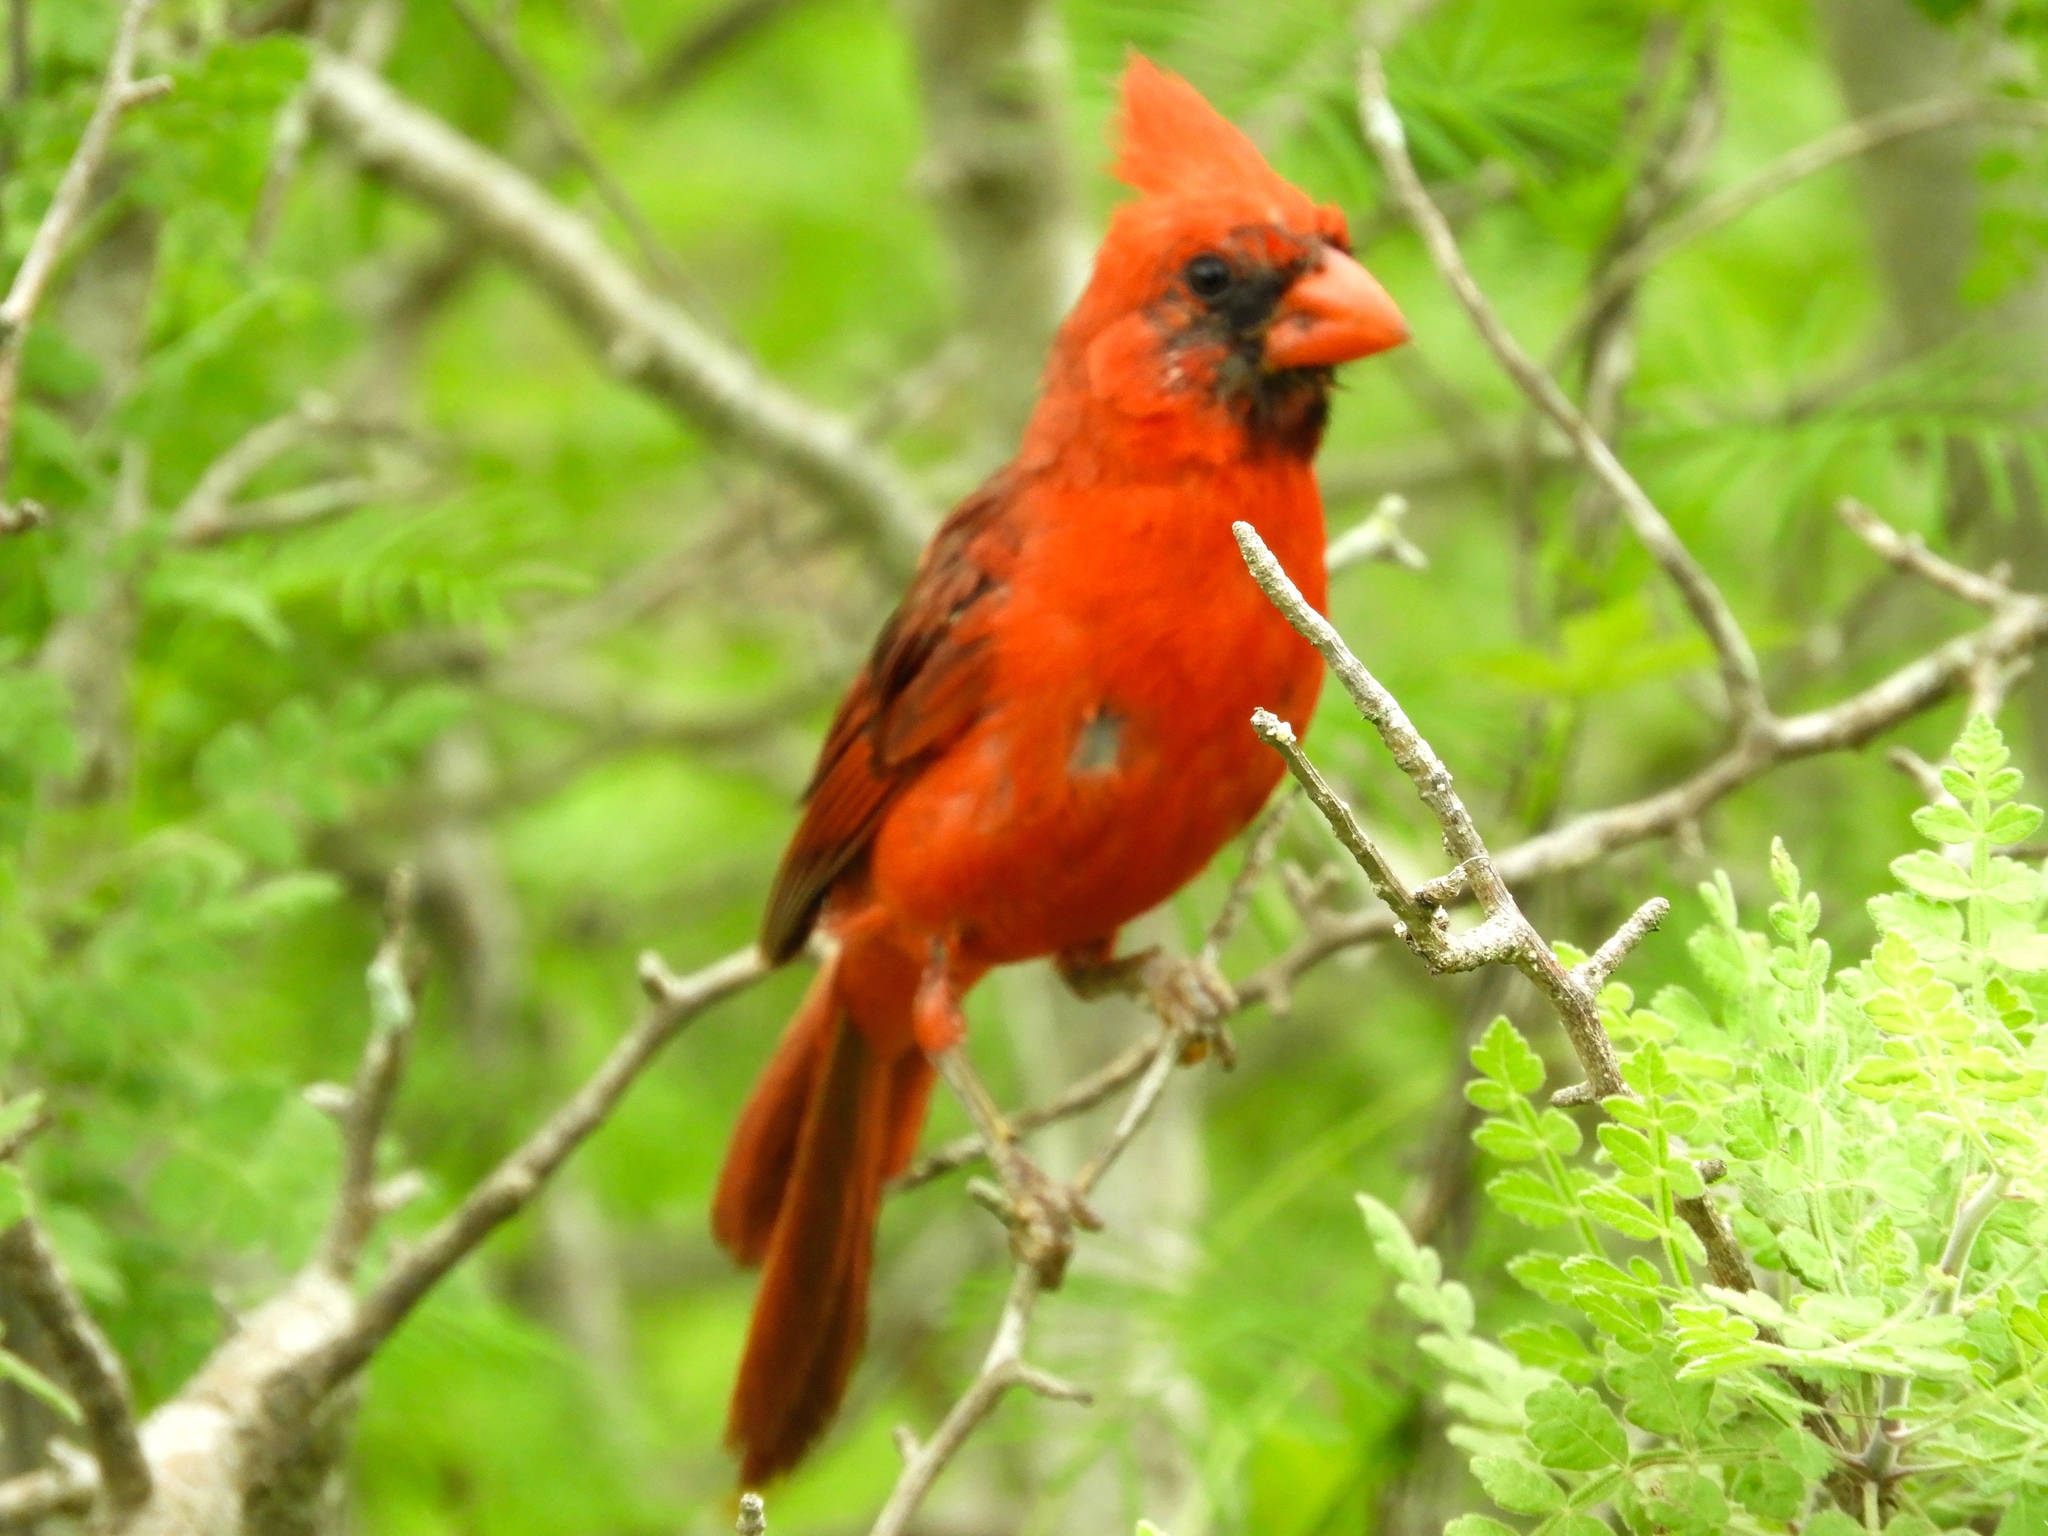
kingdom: Animalia
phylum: Chordata
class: Aves
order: Passeriformes
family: Cardinalidae
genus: Cardinalis
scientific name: Cardinalis cardinalis
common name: Northern cardinal
